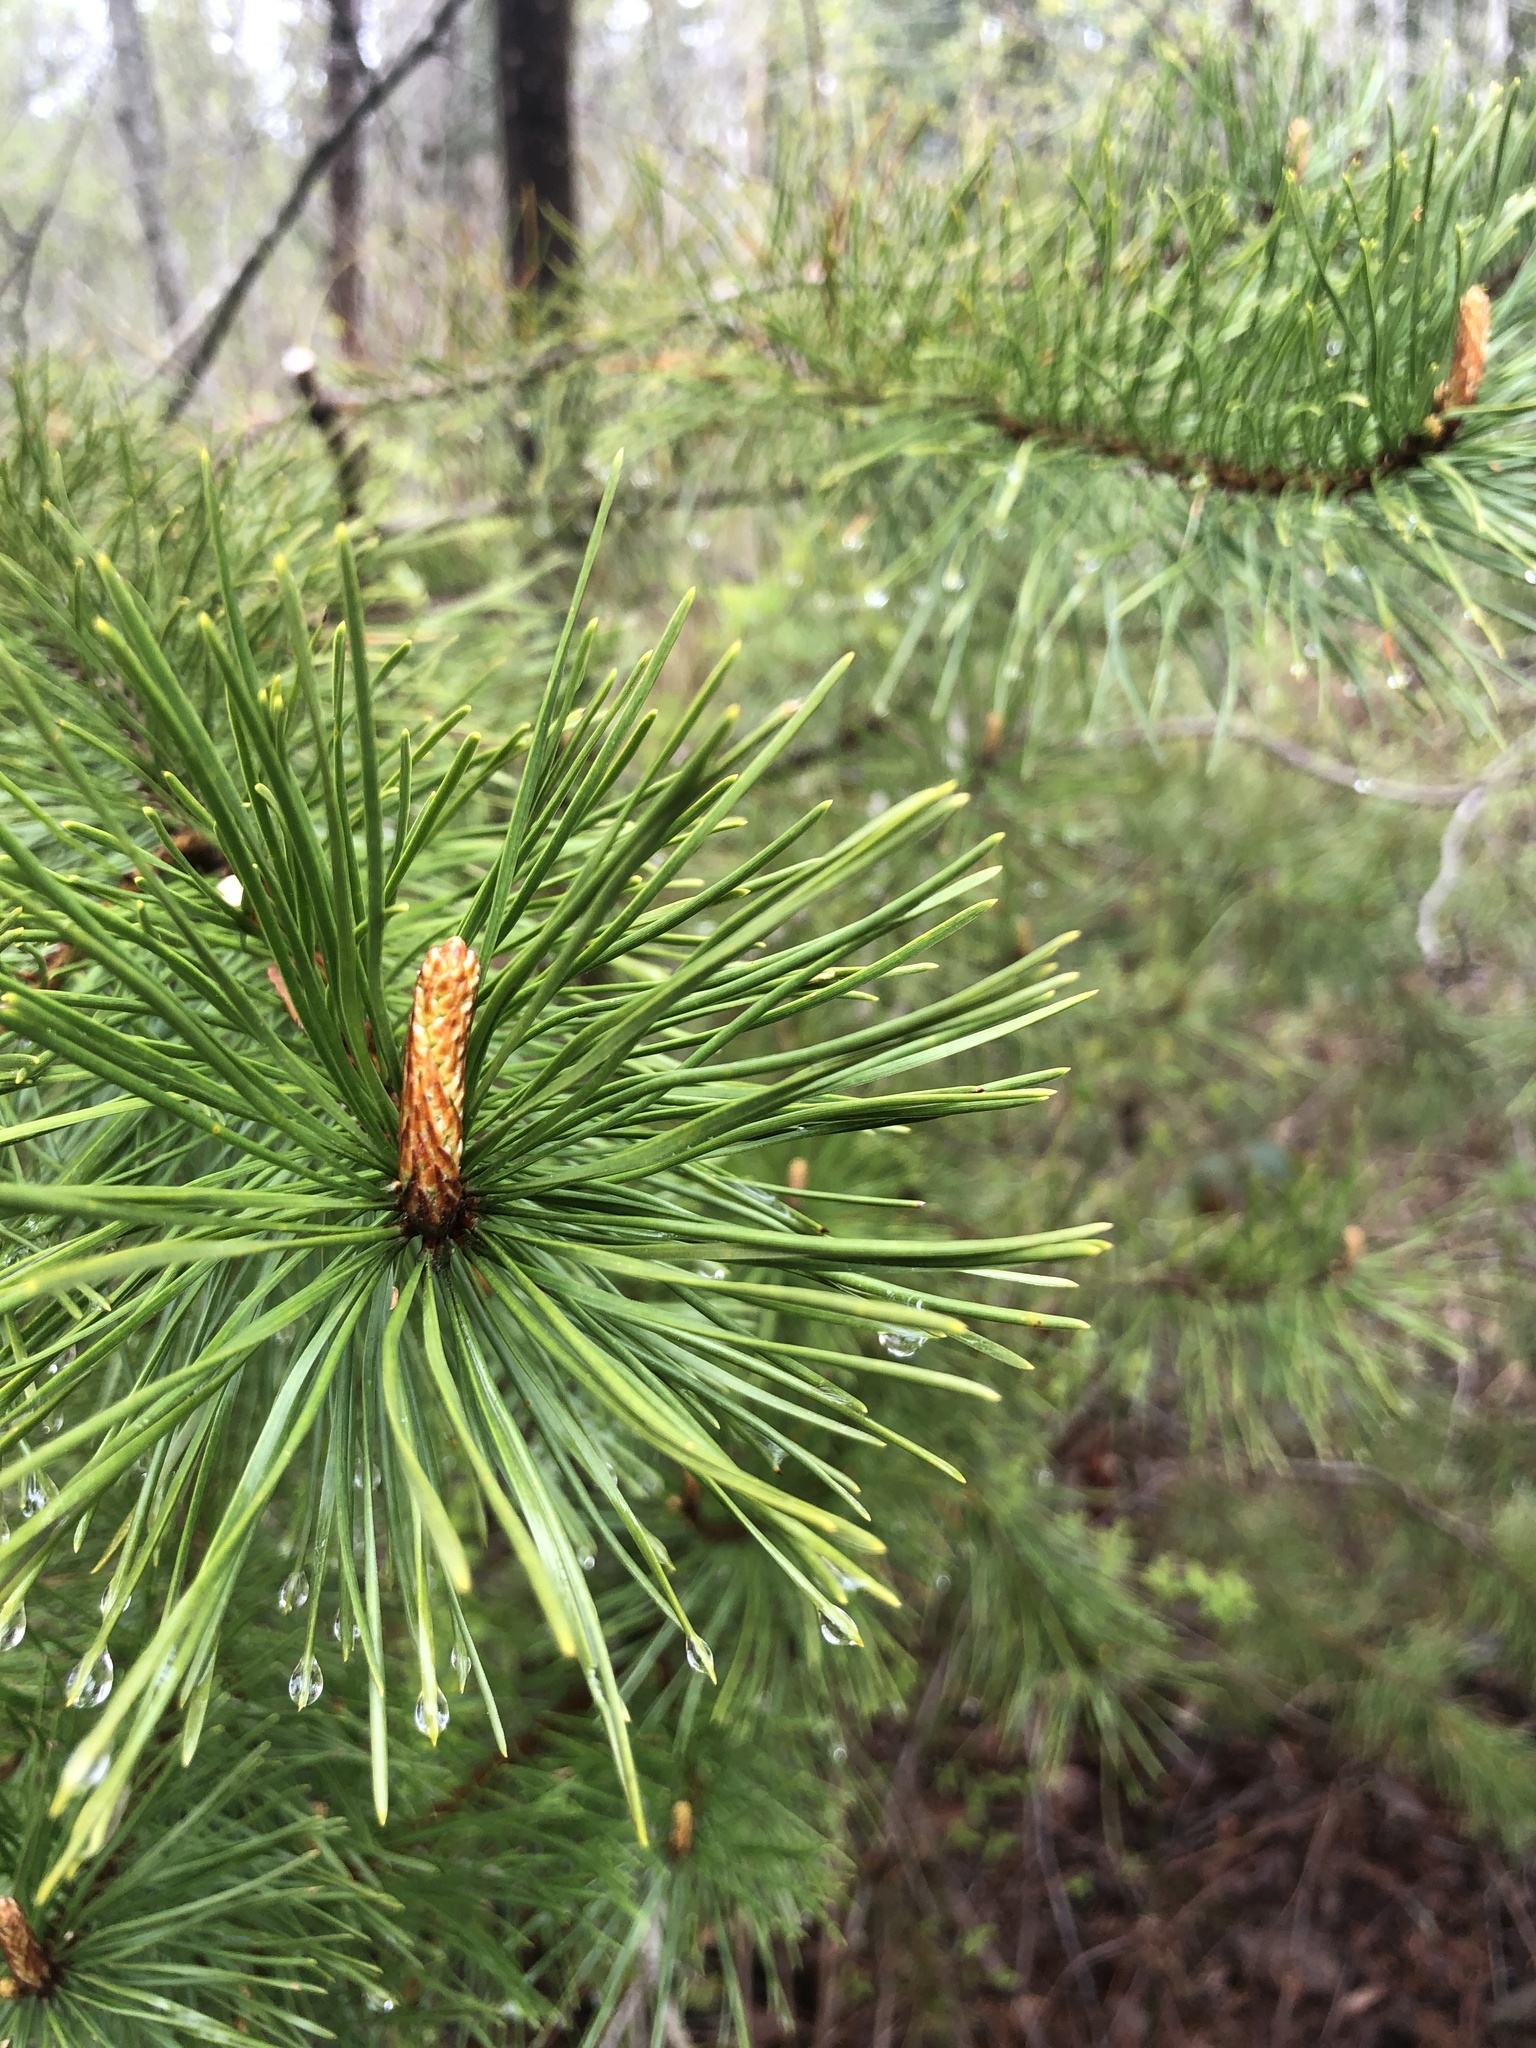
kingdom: Plantae
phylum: Tracheophyta
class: Pinopsida
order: Pinales
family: Pinaceae
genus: Pinus
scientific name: Pinus contorta
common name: Lodgepole pine
